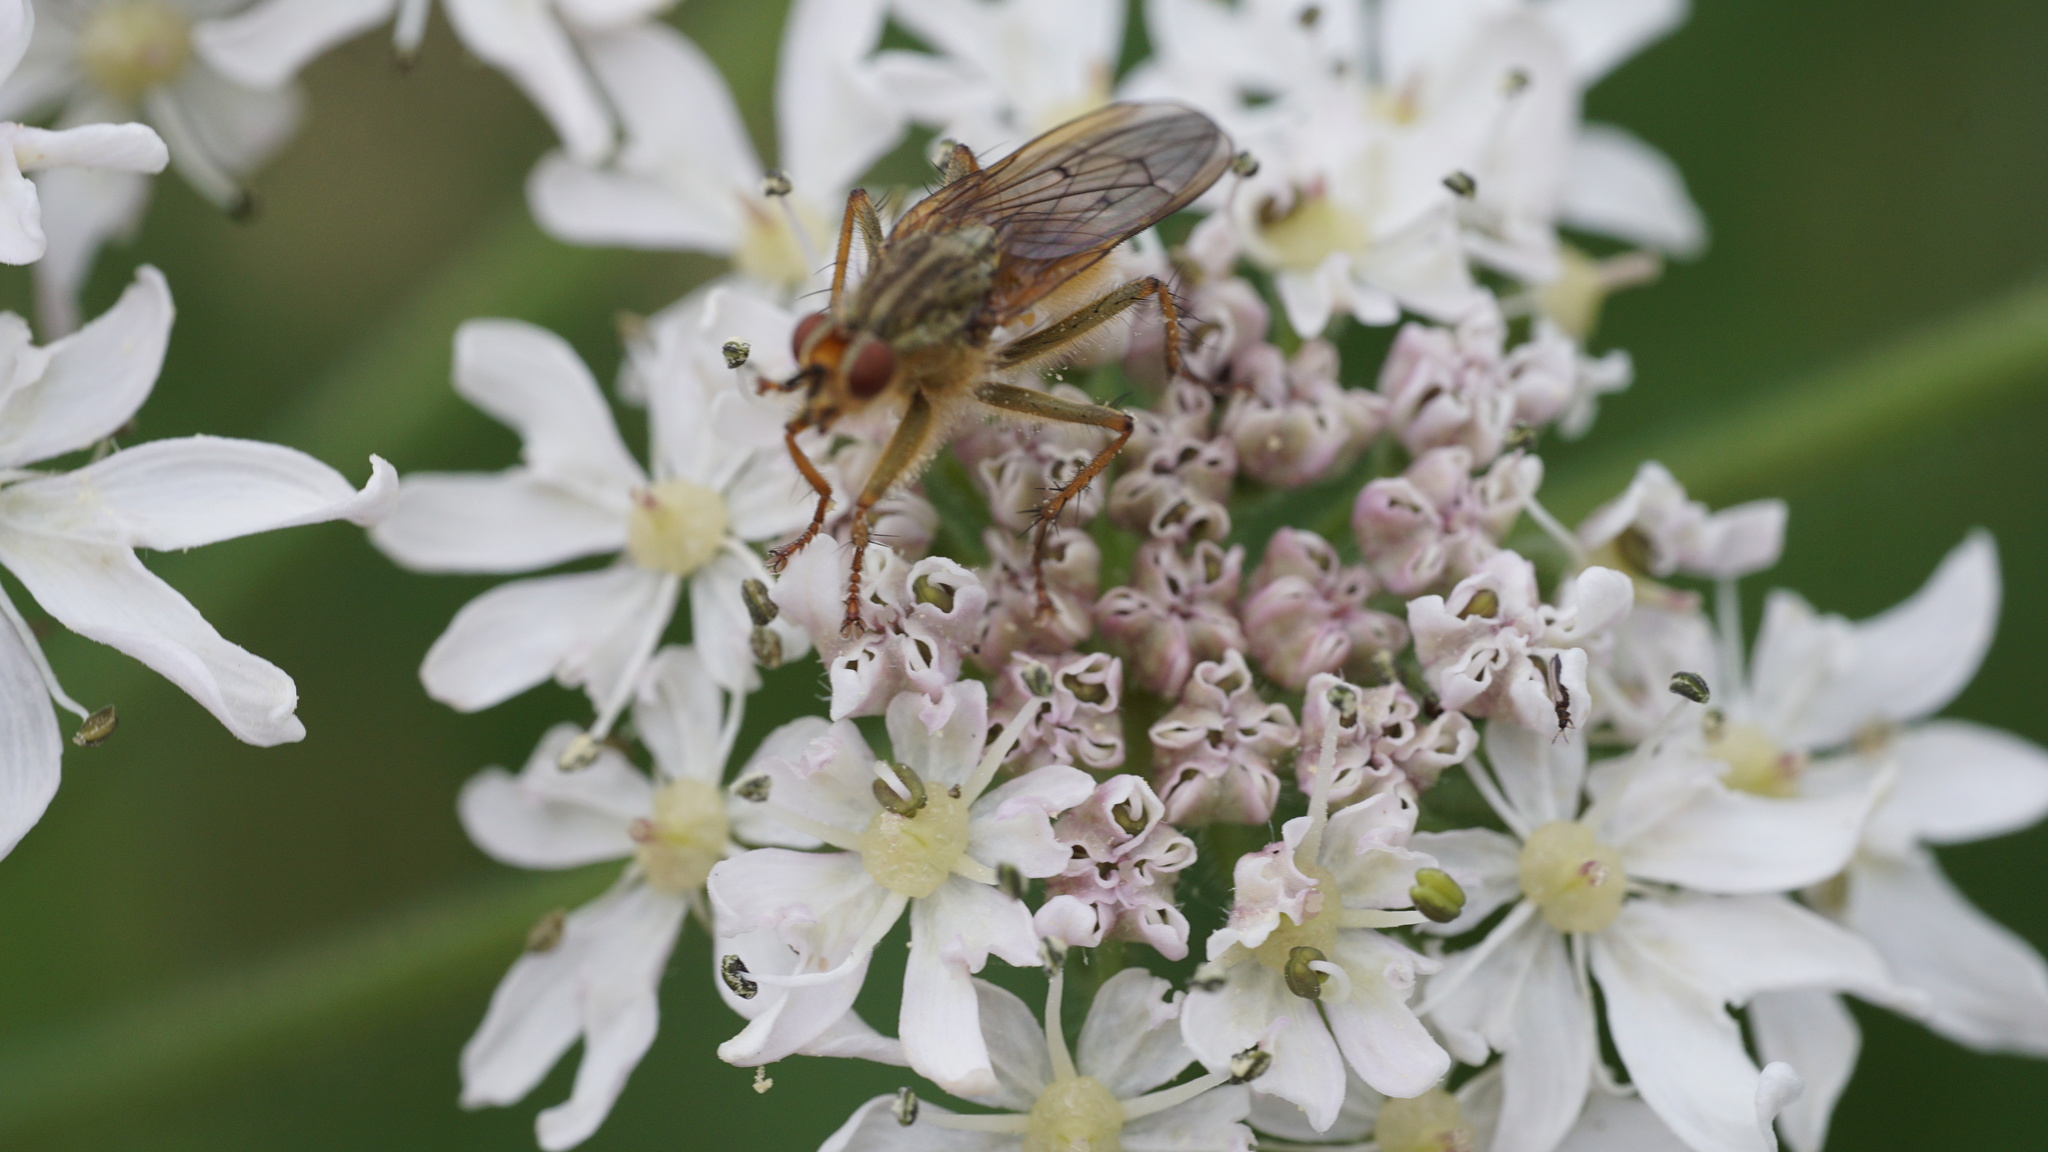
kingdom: Animalia
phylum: Arthropoda
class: Insecta
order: Diptera
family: Scathophagidae
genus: Scathophaga
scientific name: Scathophaga stercoraria
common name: Yellow dung fly
